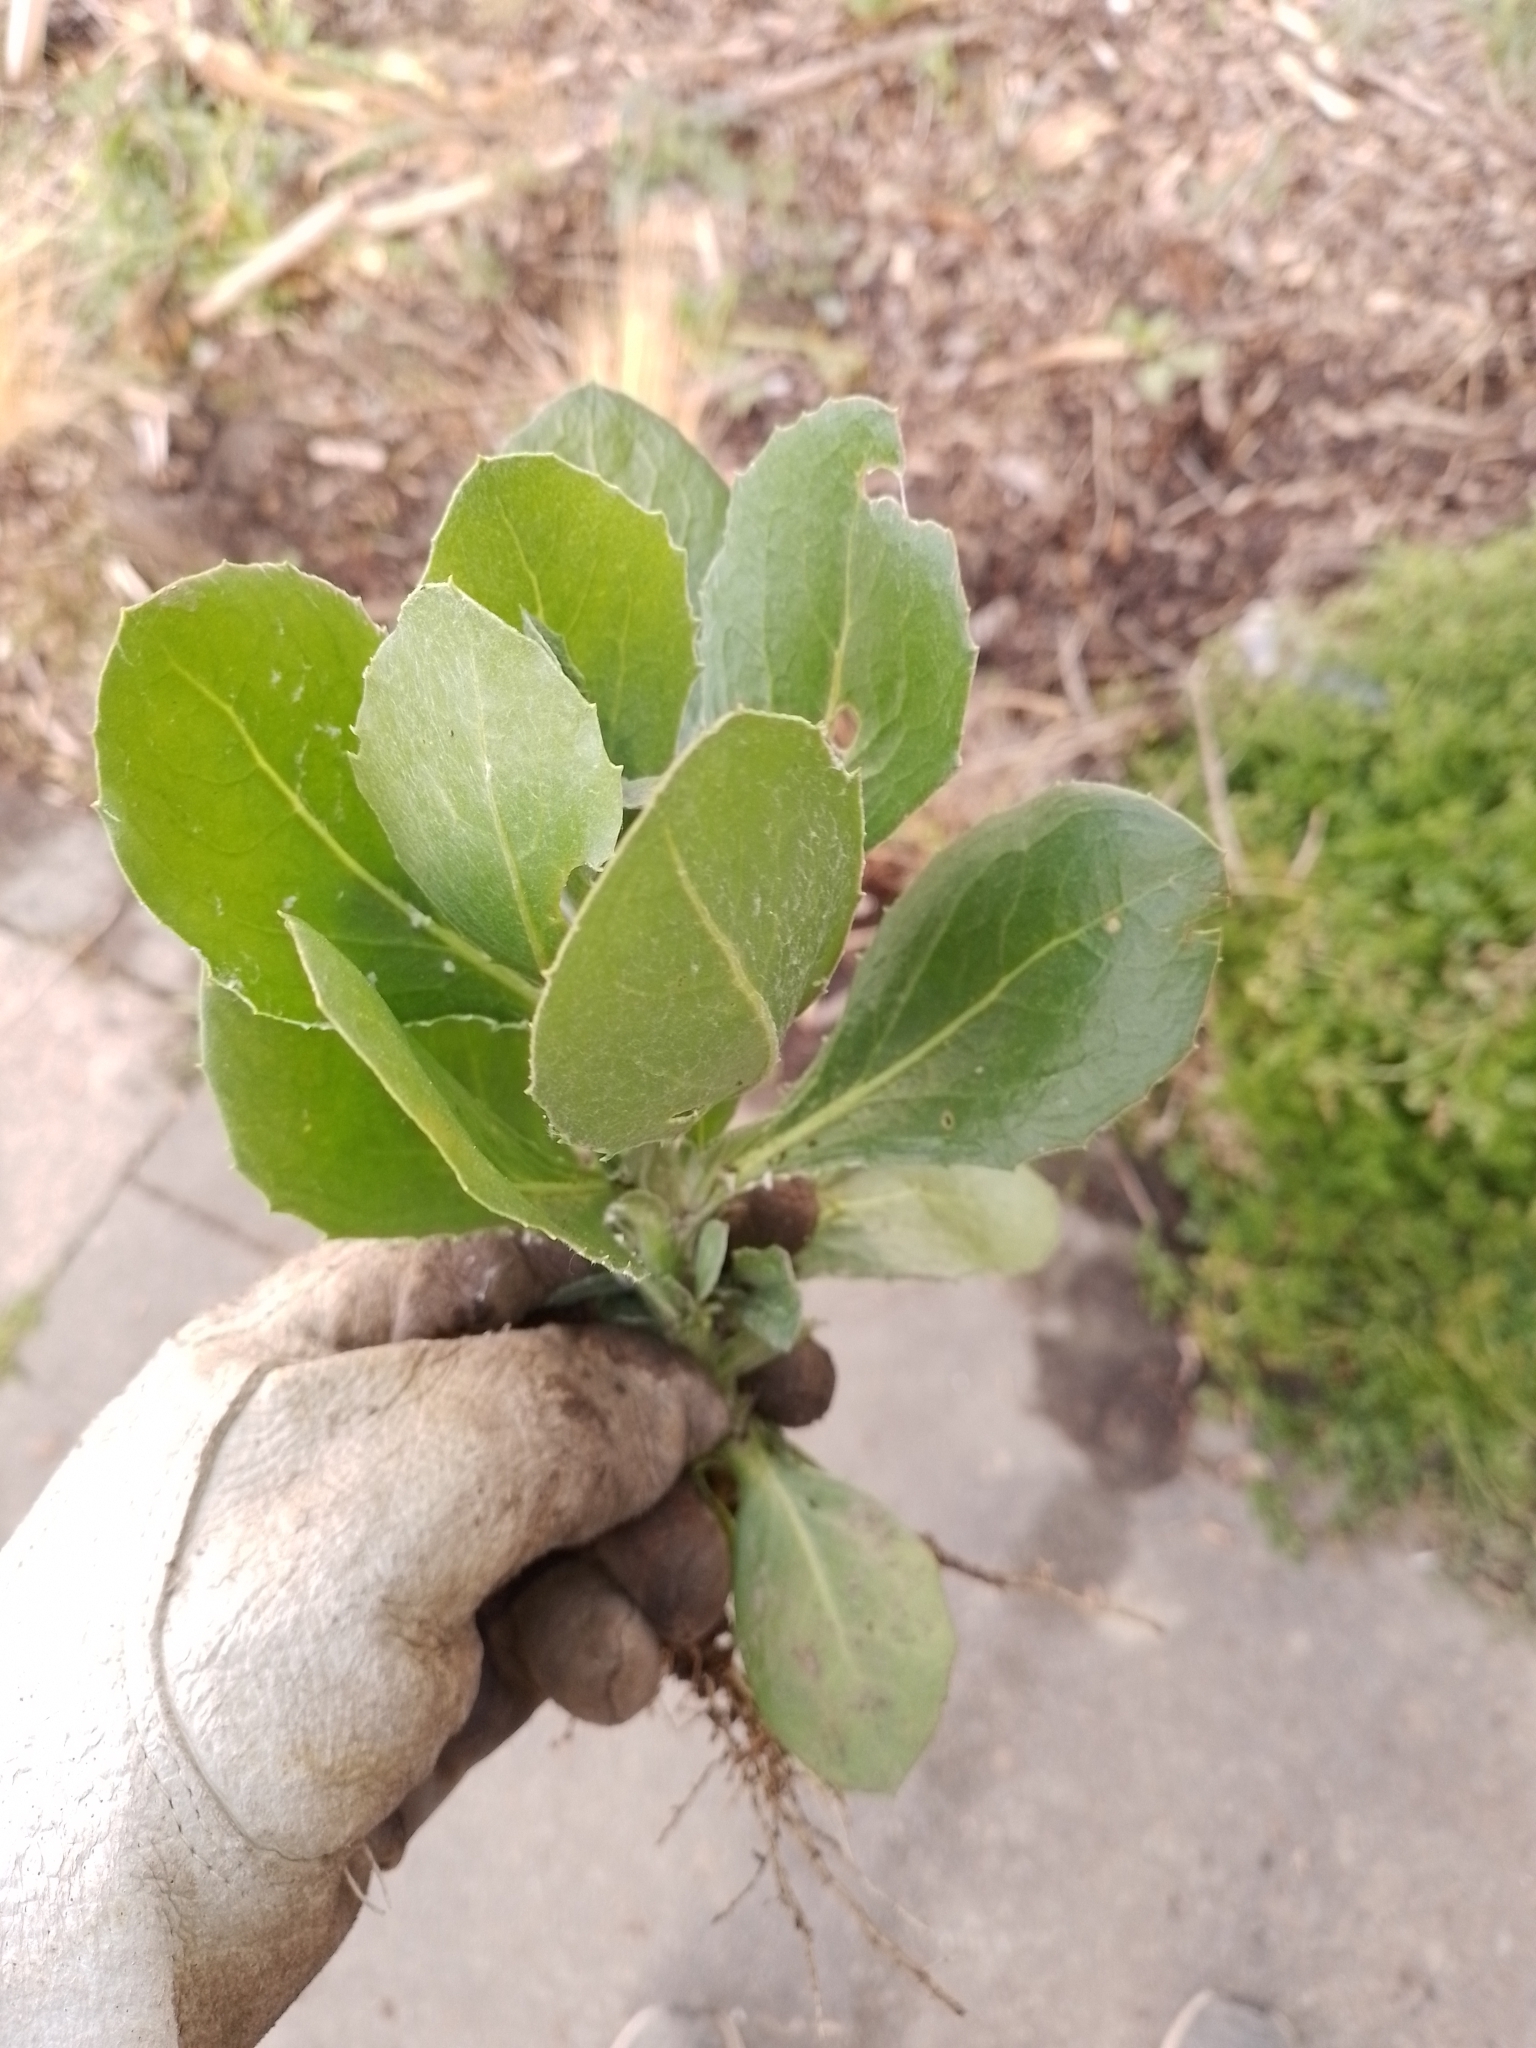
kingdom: Plantae
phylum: Tracheophyta
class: Magnoliopsida
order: Asterales
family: Asteraceae
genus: Osteospermum
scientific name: Osteospermum moniliferum
